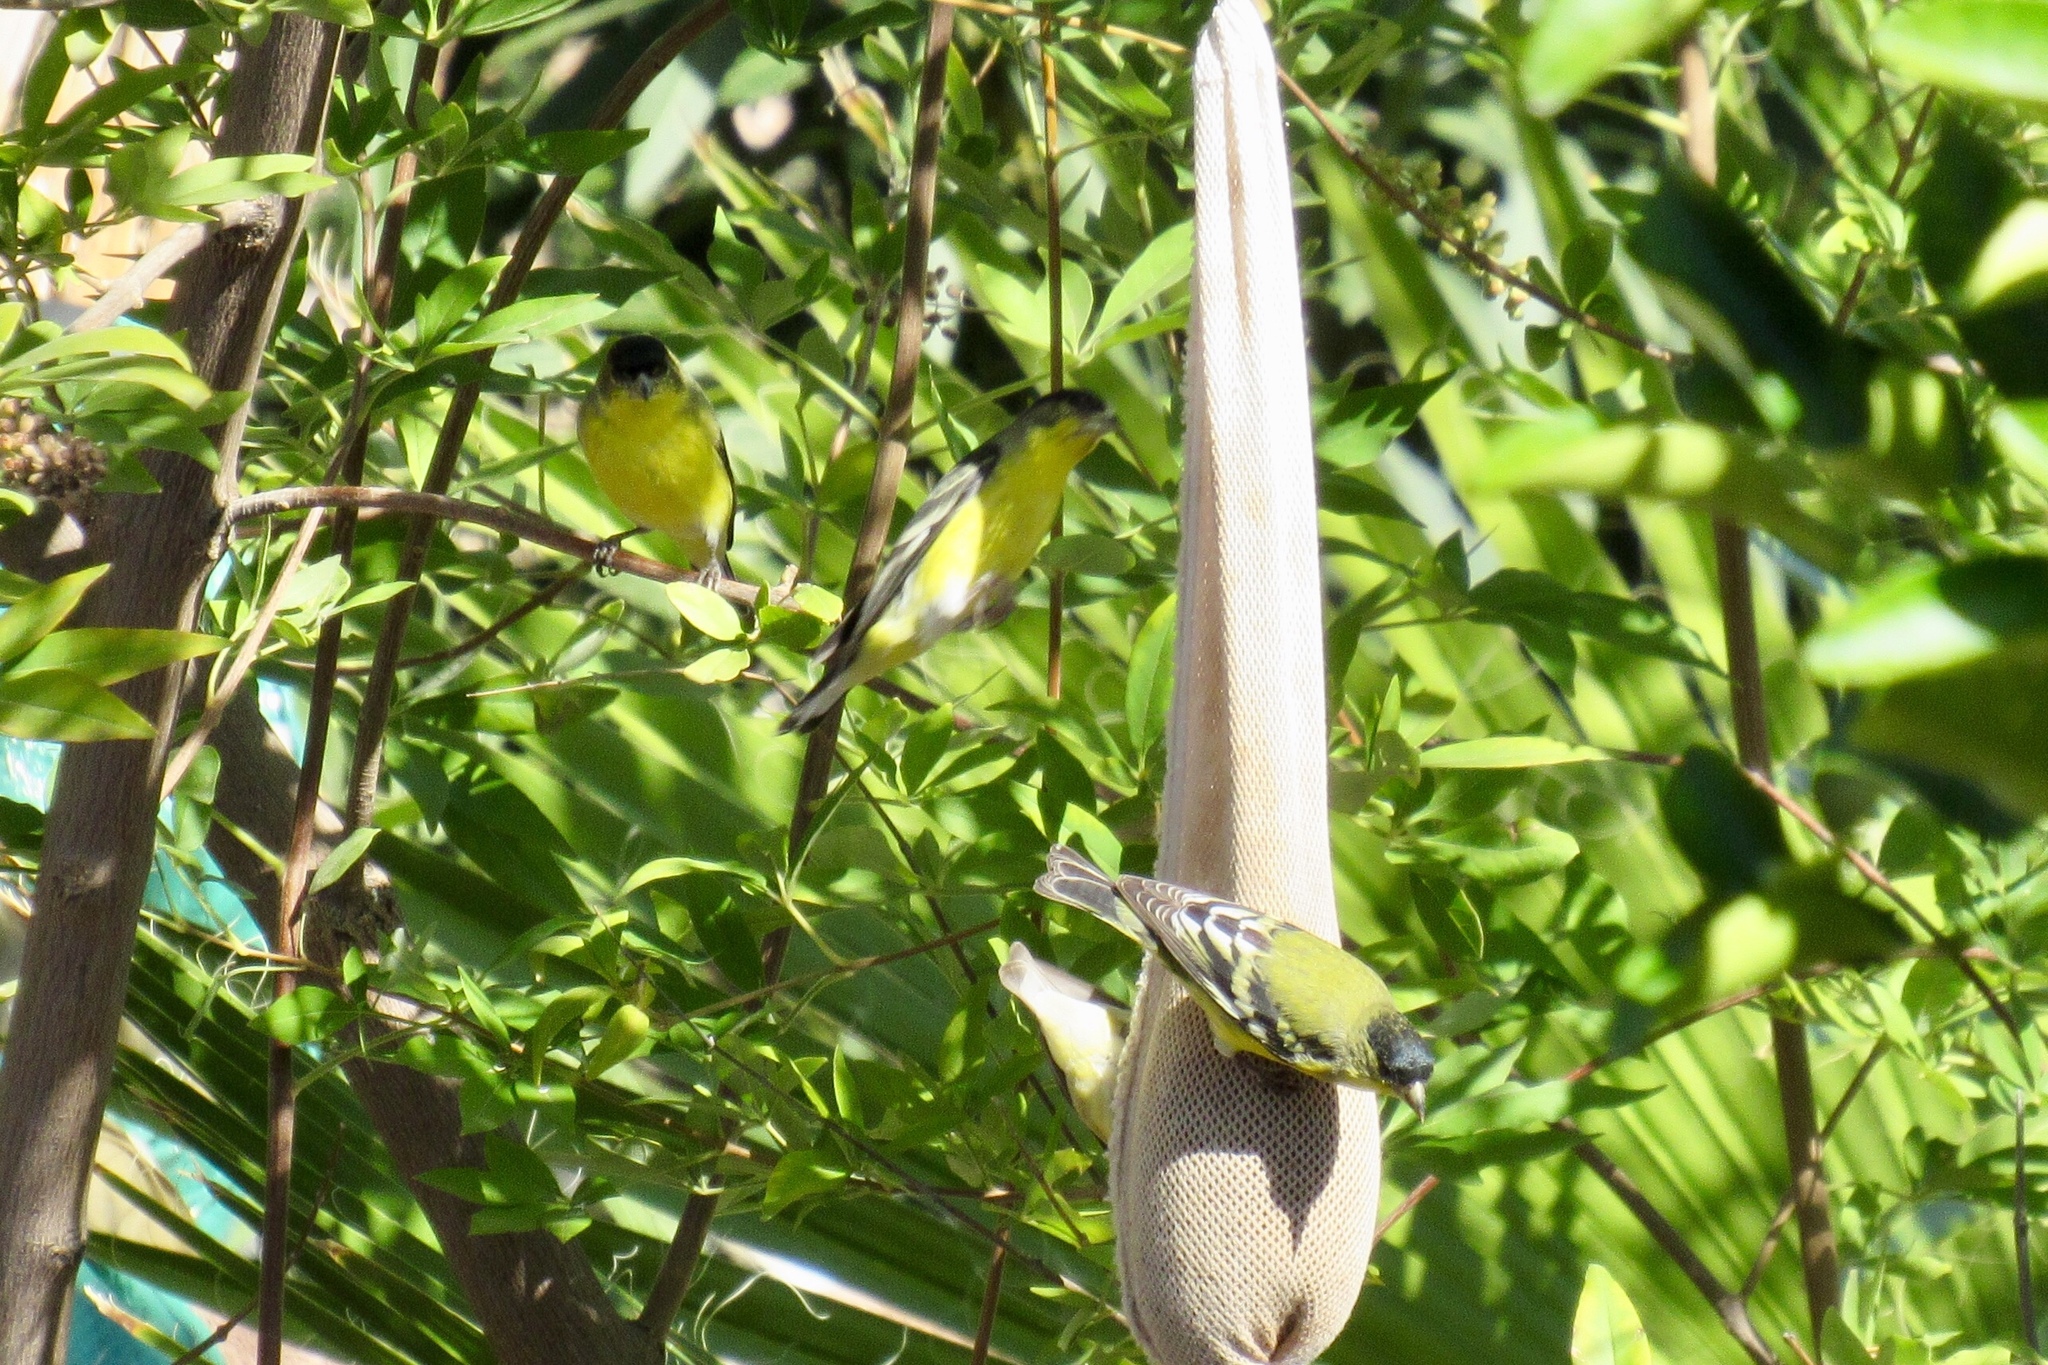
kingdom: Animalia
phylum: Chordata
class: Aves
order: Passeriformes
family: Fringillidae
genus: Spinus
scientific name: Spinus psaltria
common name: Lesser goldfinch
